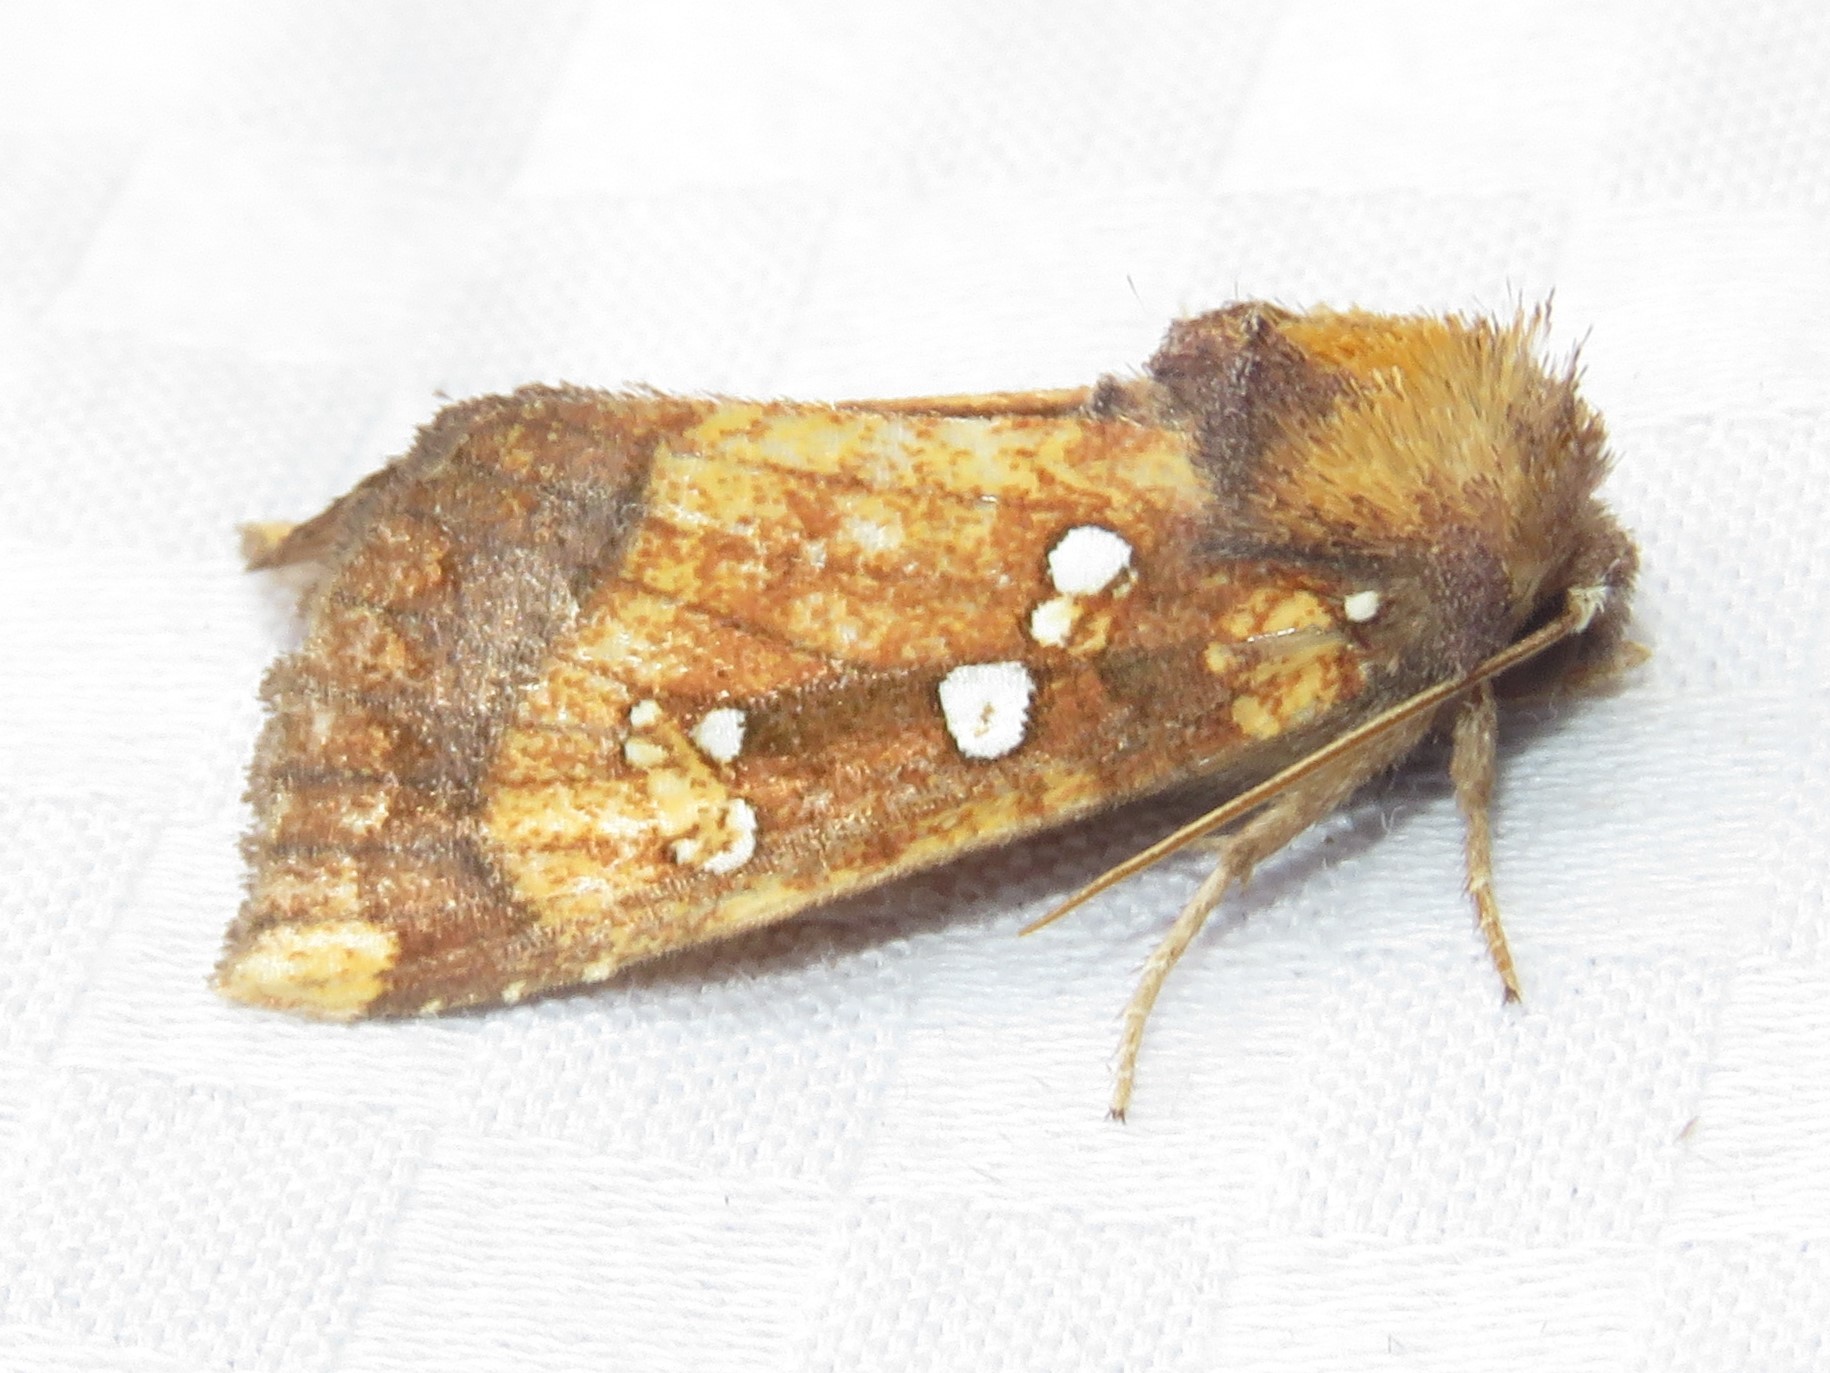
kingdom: Animalia
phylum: Arthropoda
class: Insecta
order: Lepidoptera
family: Noctuidae
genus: Papaipema
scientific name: Papaipema arctivorens
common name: Northern burdock borer moth
